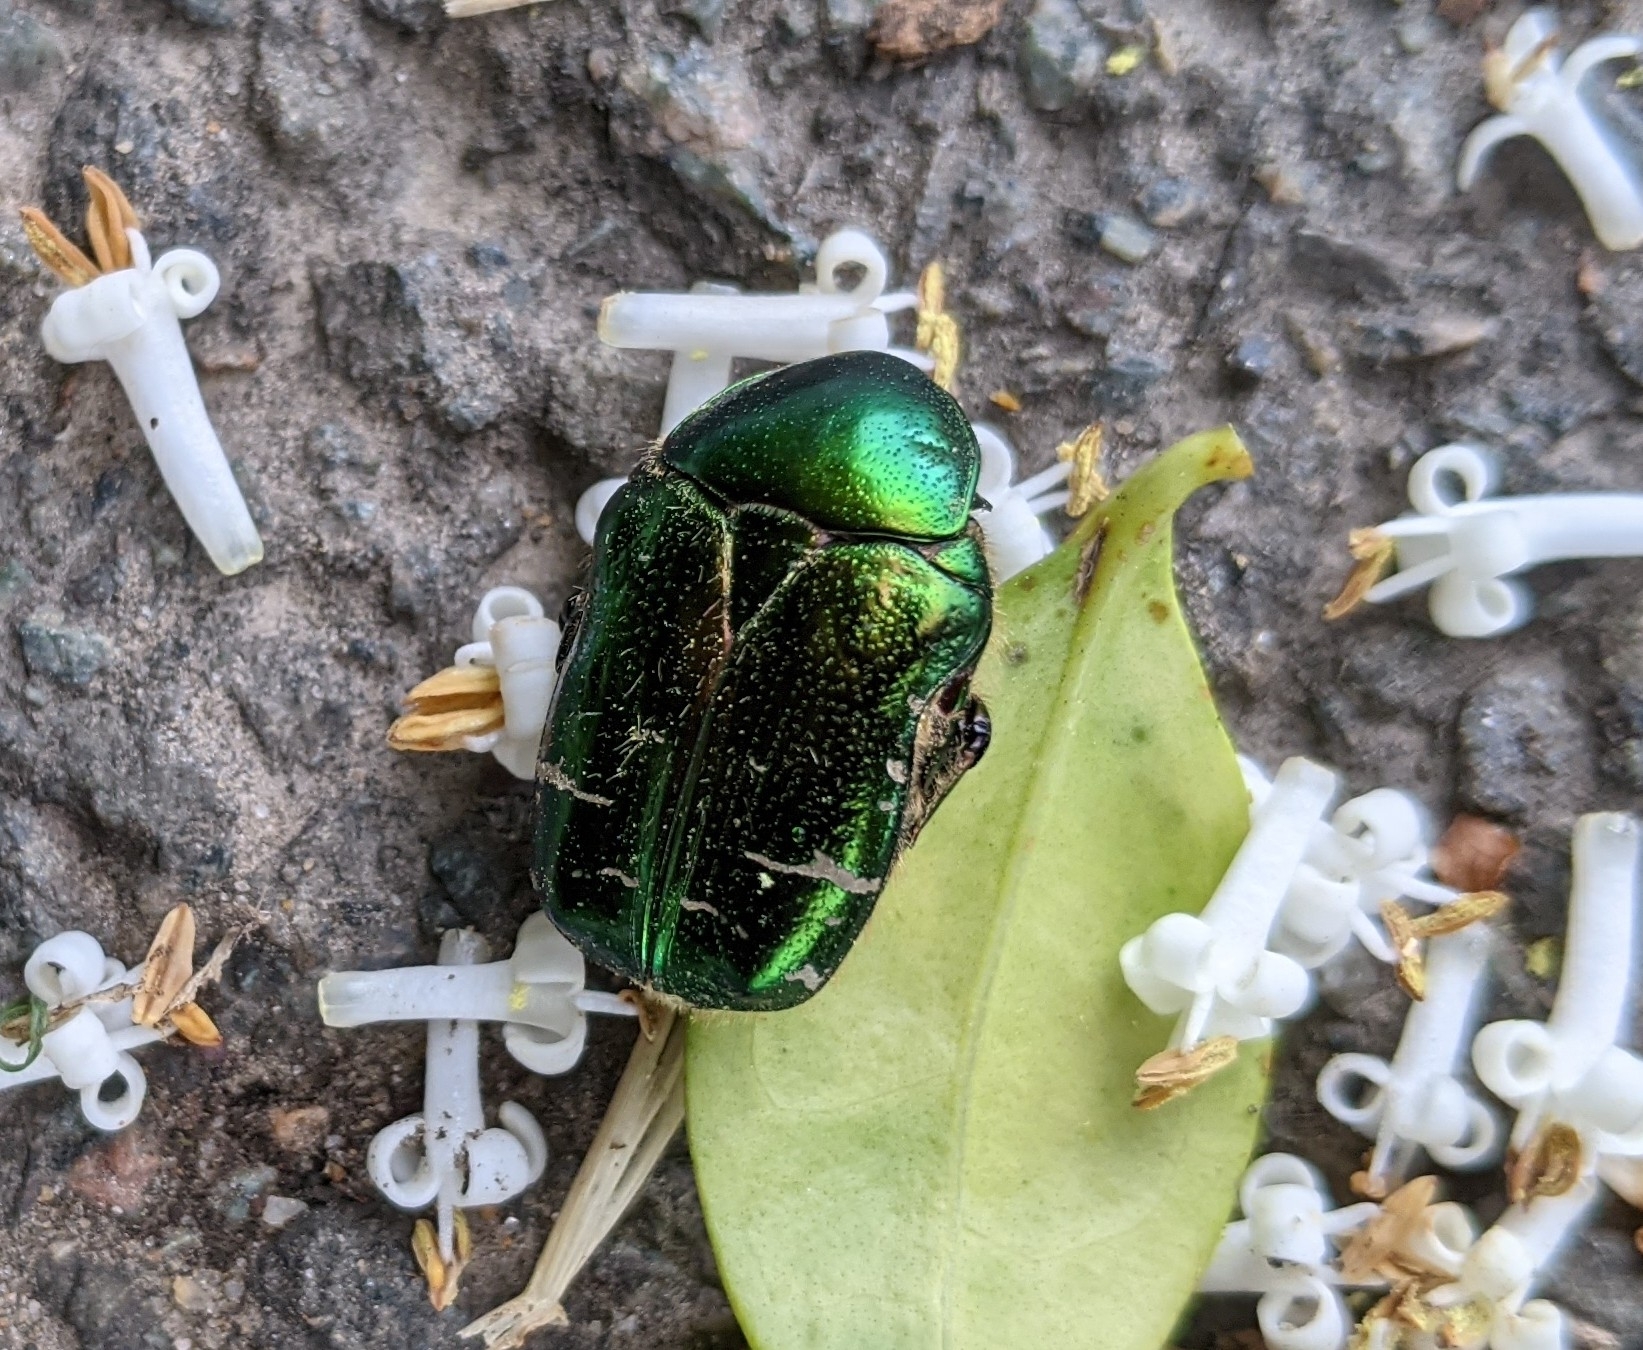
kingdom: Animalia
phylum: Arthropoda
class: Insecta
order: Coleoptera
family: Scarabaeidae
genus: Cetonia
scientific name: Cetonia aurata
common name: Rose chafer
